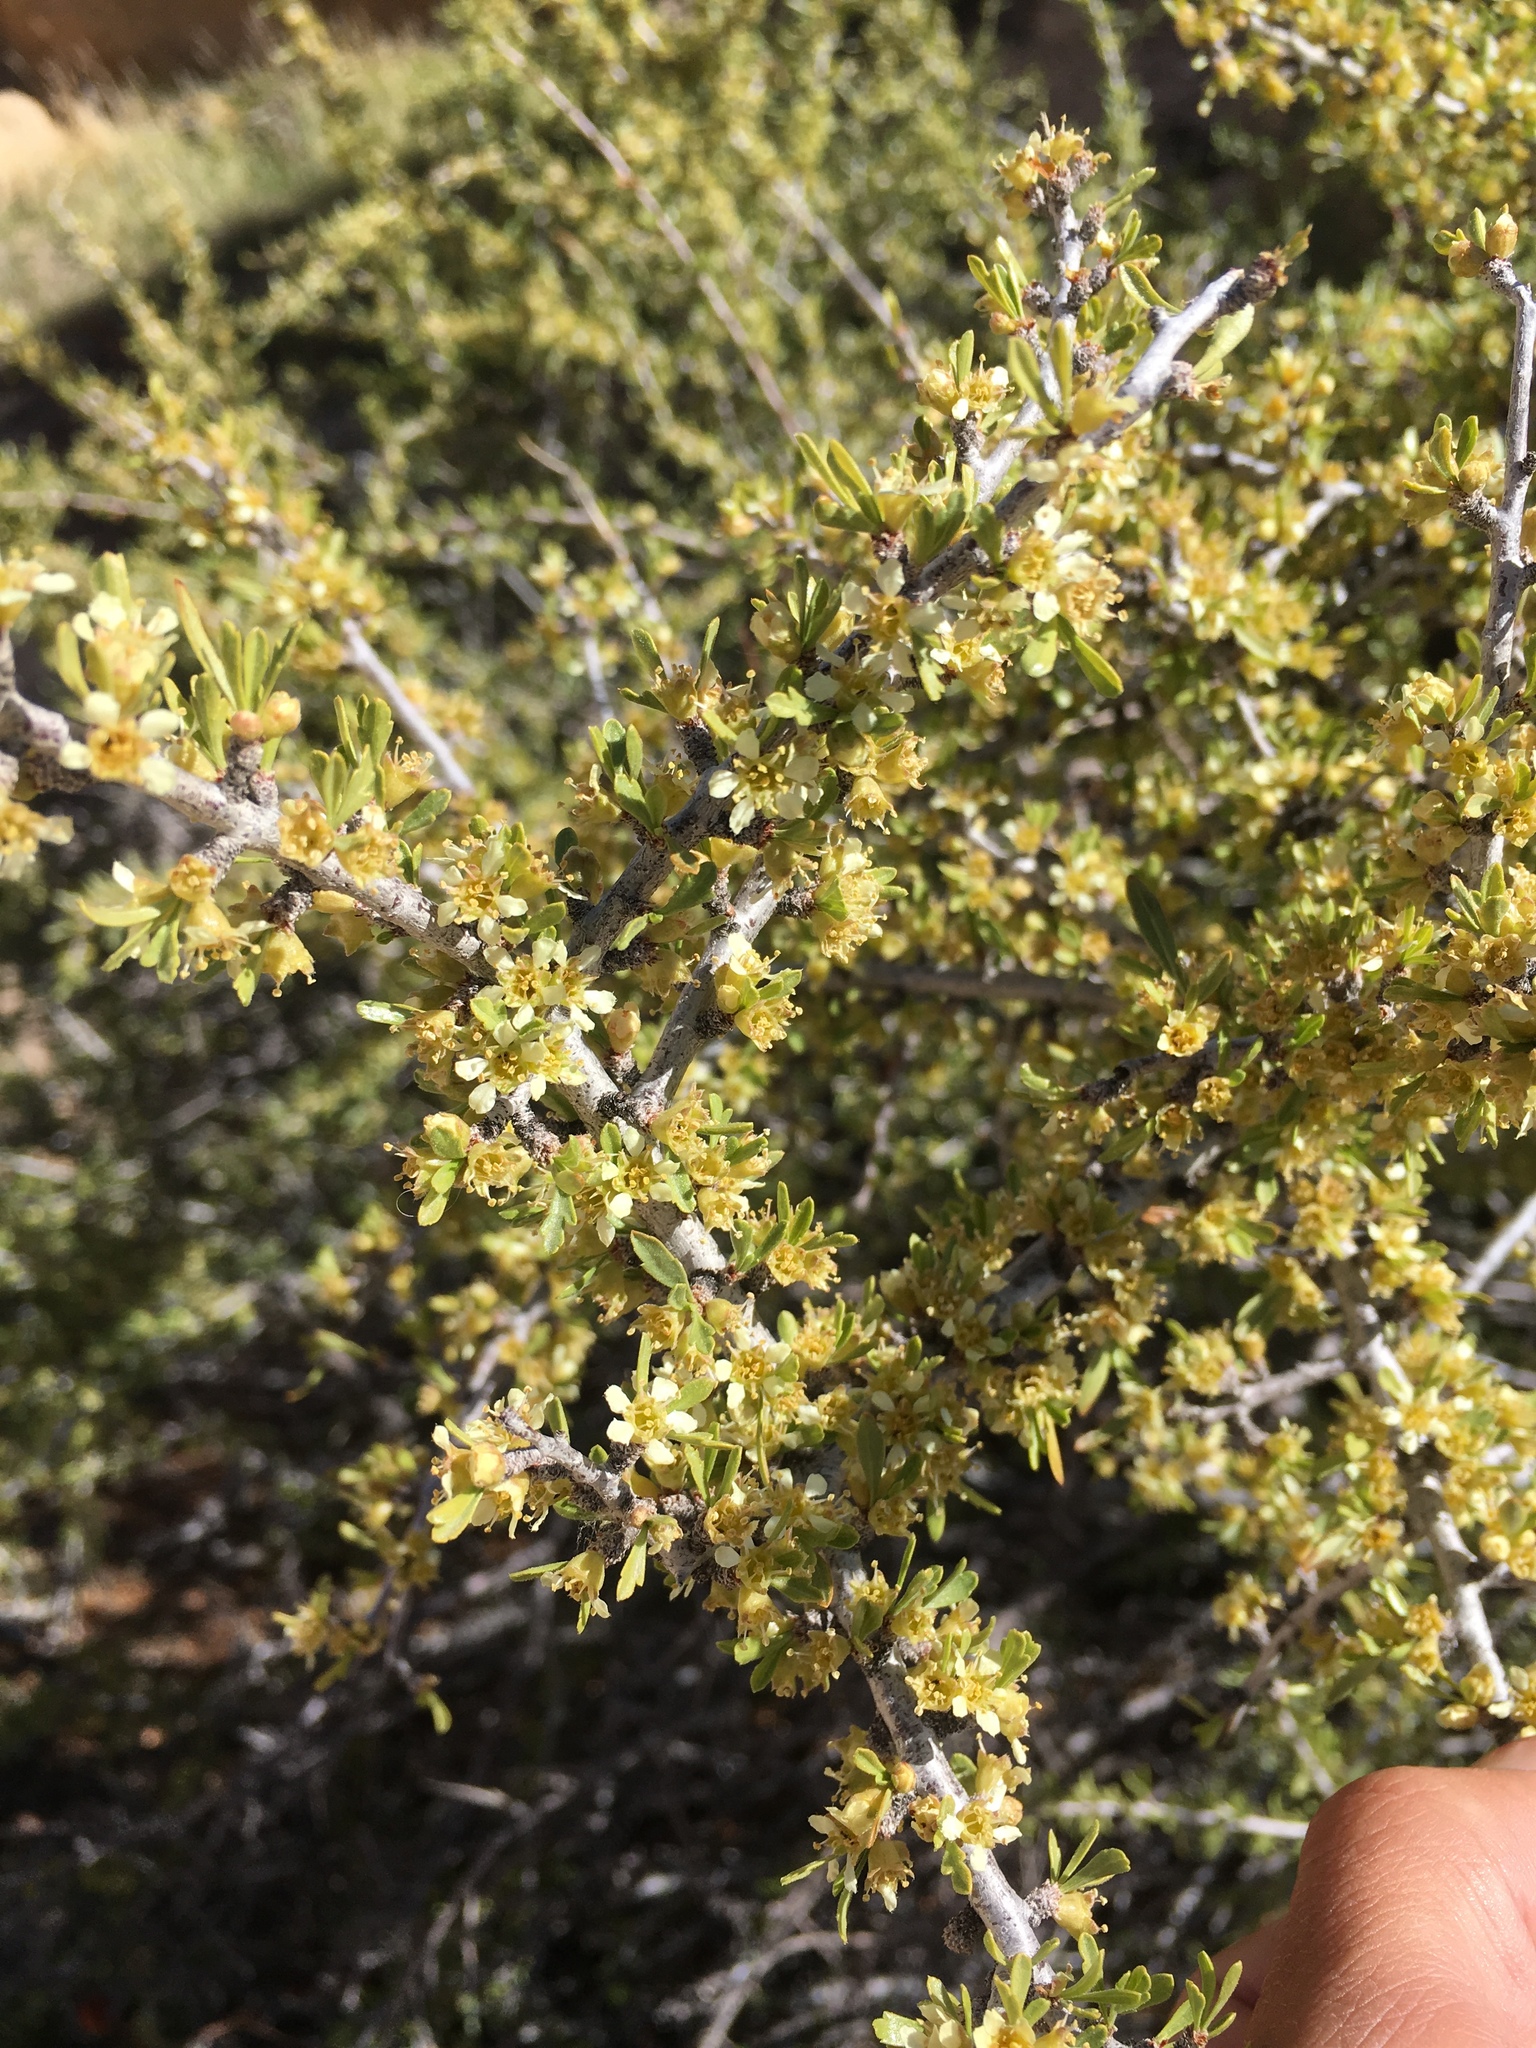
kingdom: Plantae
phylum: Tracheophyta
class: Magnoliopsida
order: Rosales
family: Rosaceae
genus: Prunus
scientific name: Prunus fasciculata
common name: Desert almond
